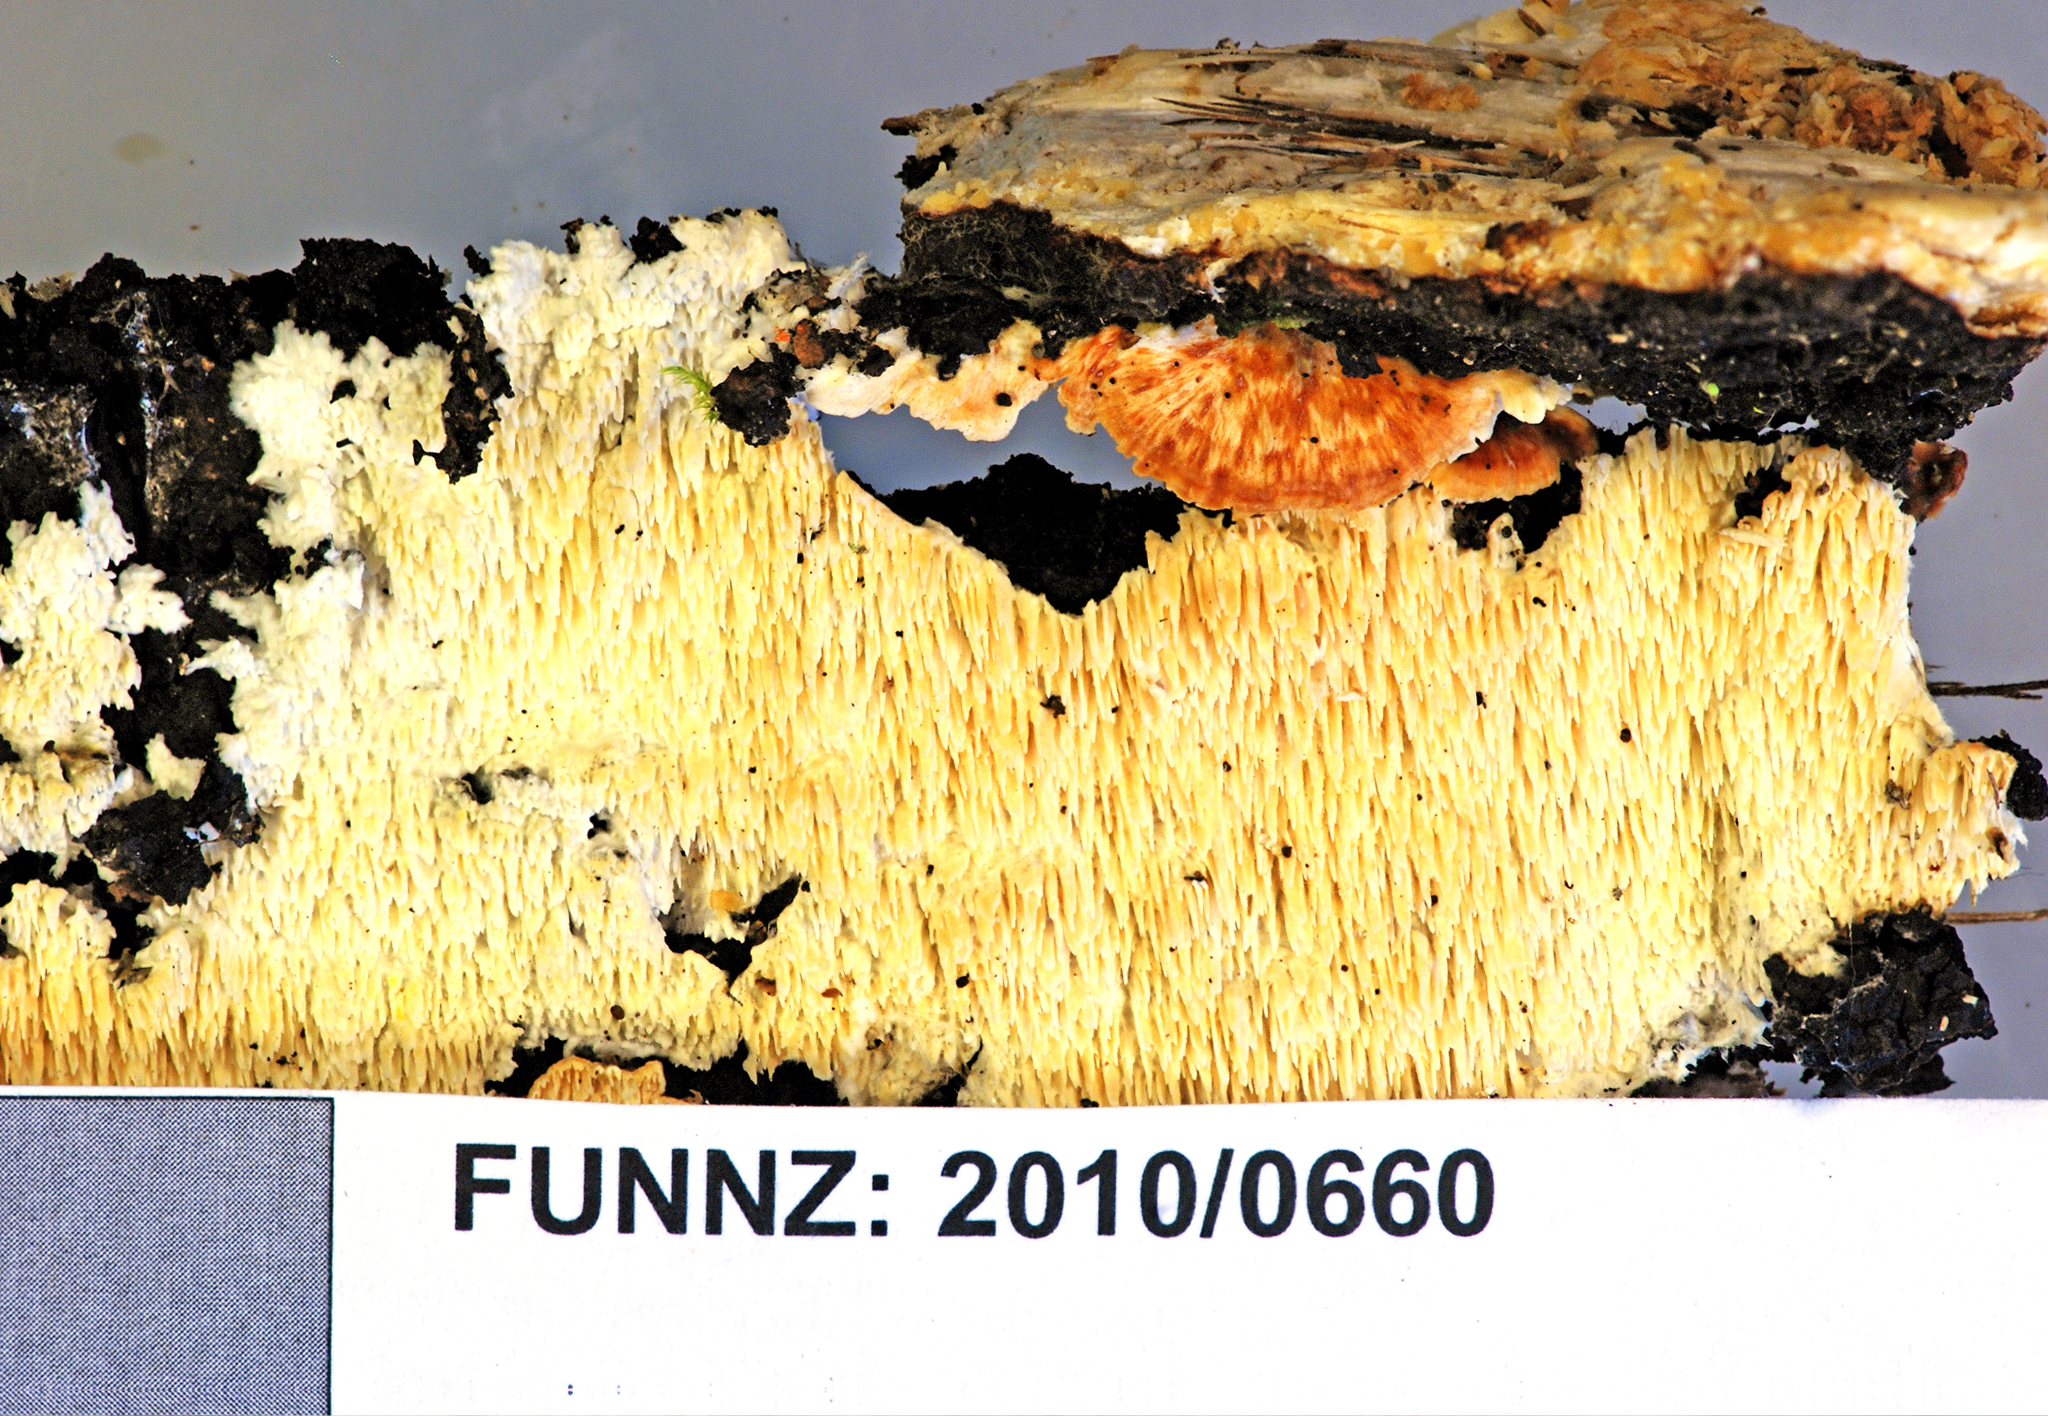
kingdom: Fungi
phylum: Basidiomycota
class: Agaricomycetes
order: Polyporales
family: Cerrenaceae
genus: Cerrena
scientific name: Cerrena zonata
